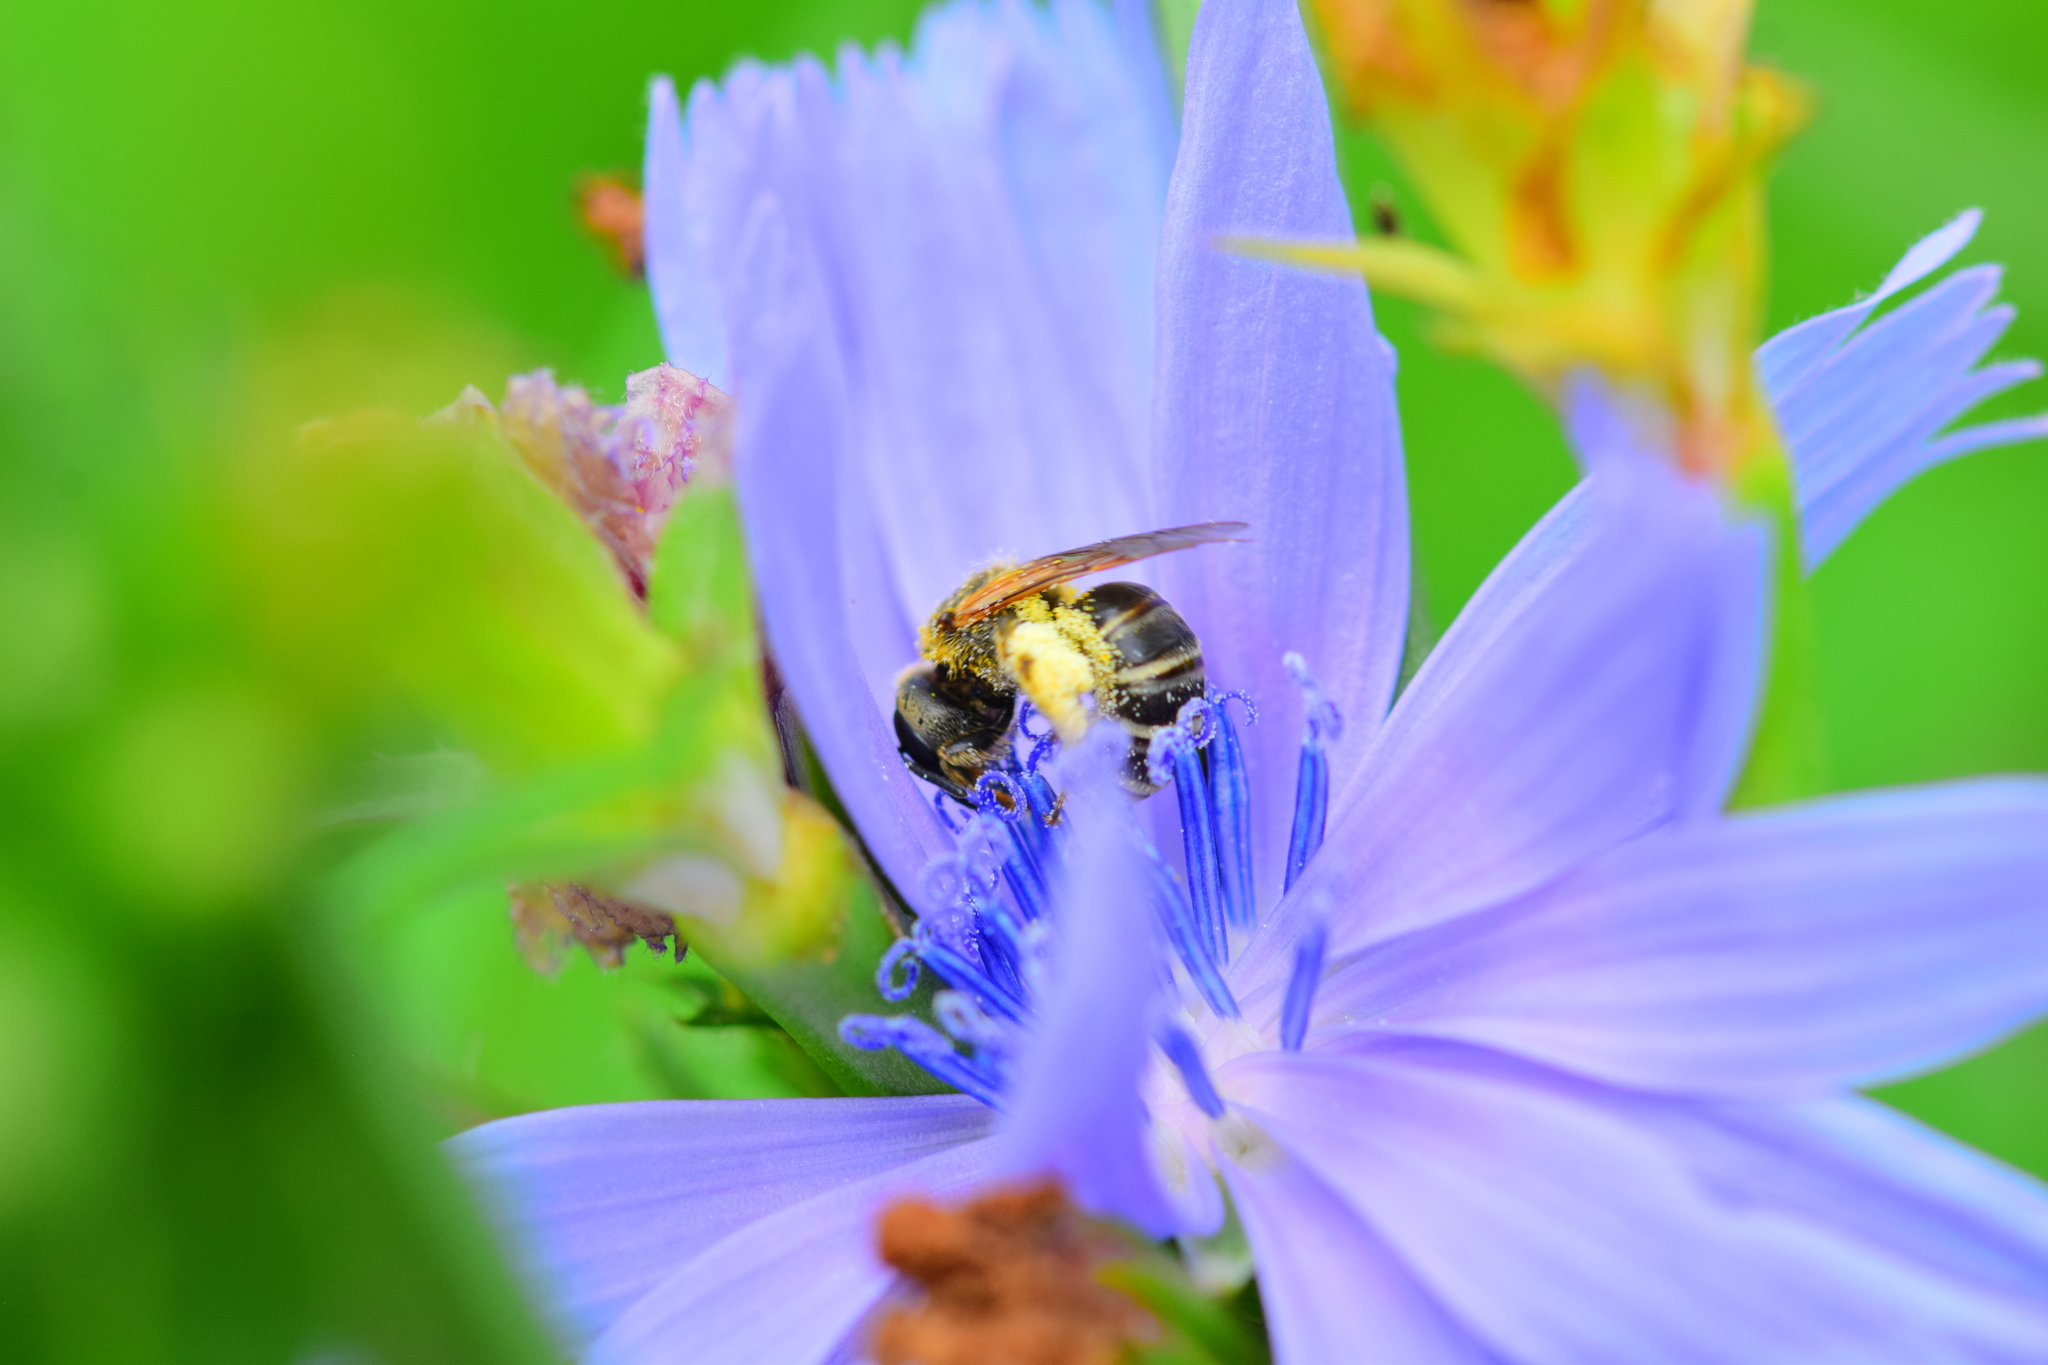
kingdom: Animalia
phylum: Arthropoda
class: Insecta
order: Hymenoptera
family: Halictidae
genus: Halictus
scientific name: Halictus ligatus
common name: Ligated furrow bee
